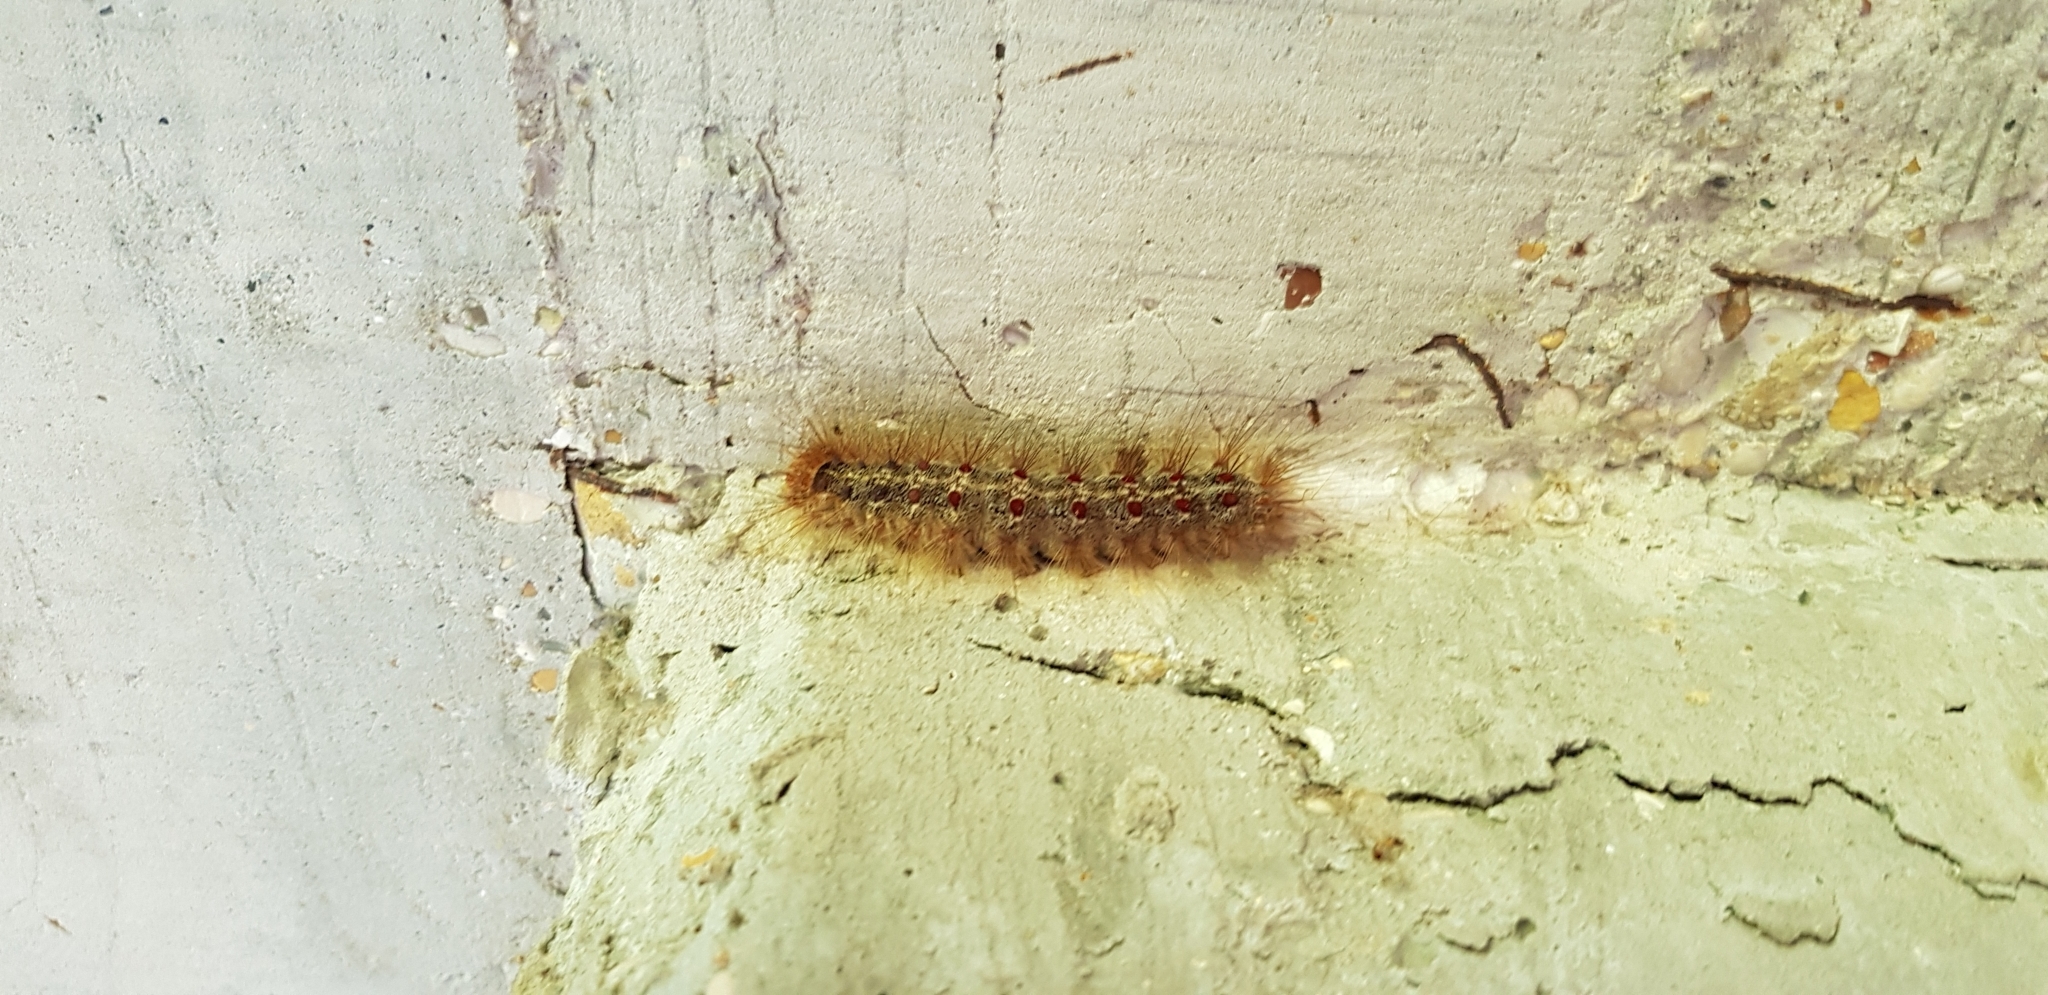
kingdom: Animalia
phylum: Arthropoda
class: Insecta
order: Lepidoptera
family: Erebidae
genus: Lymantria
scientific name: Lymantria dispar
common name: Gypsy moth
